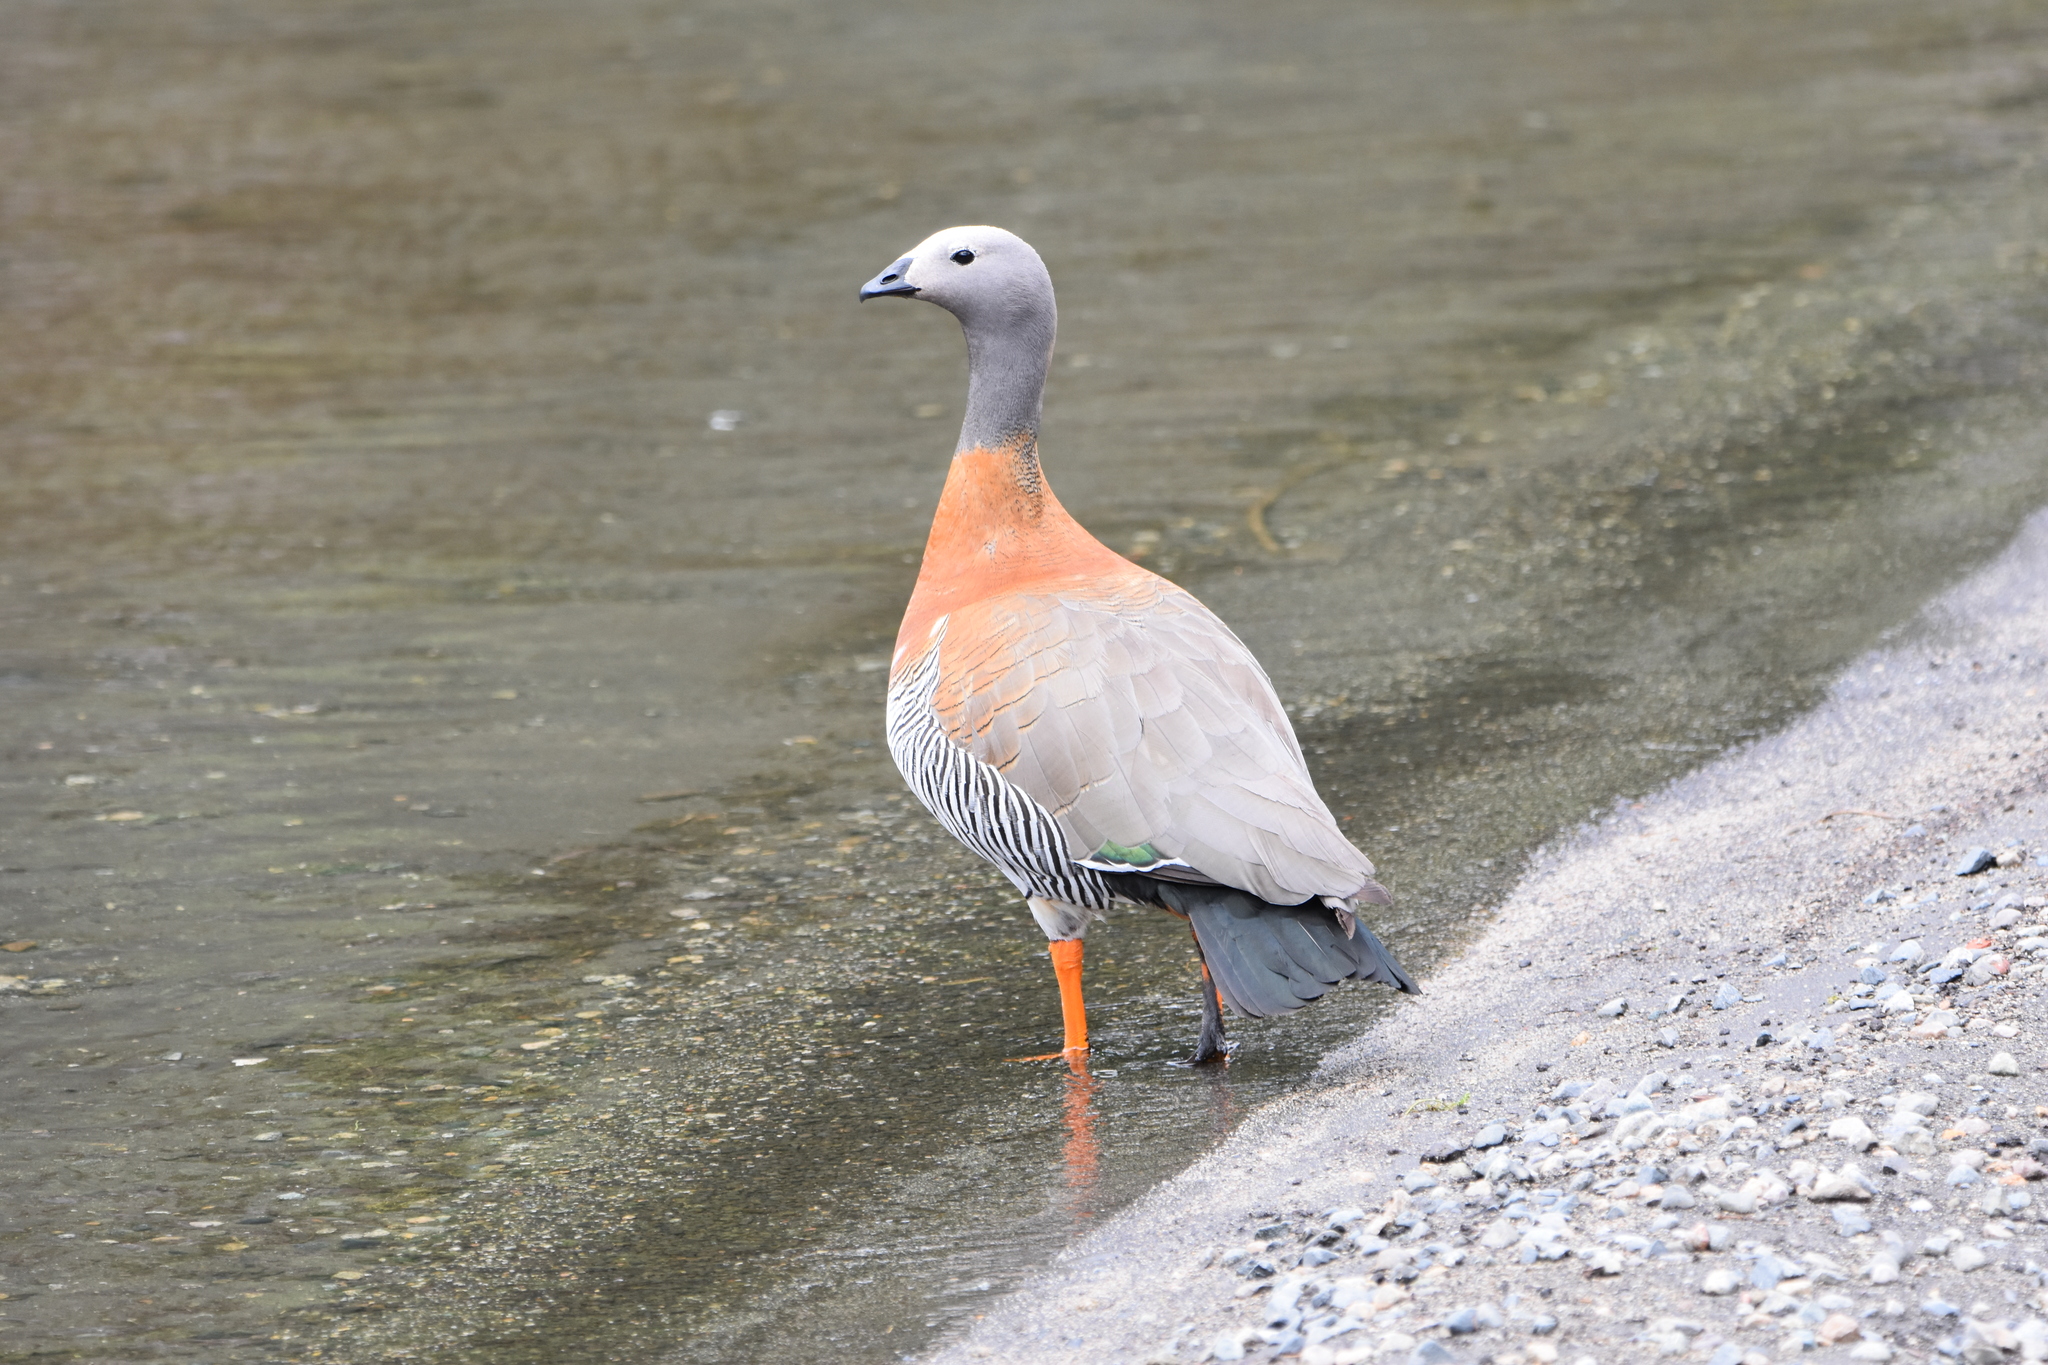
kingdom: Animalia
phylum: Chordata
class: Aves
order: Anseriformes
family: Anatidae
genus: Chloephaga
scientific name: Chloephaga poliocephala
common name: Ashy-headed goose
